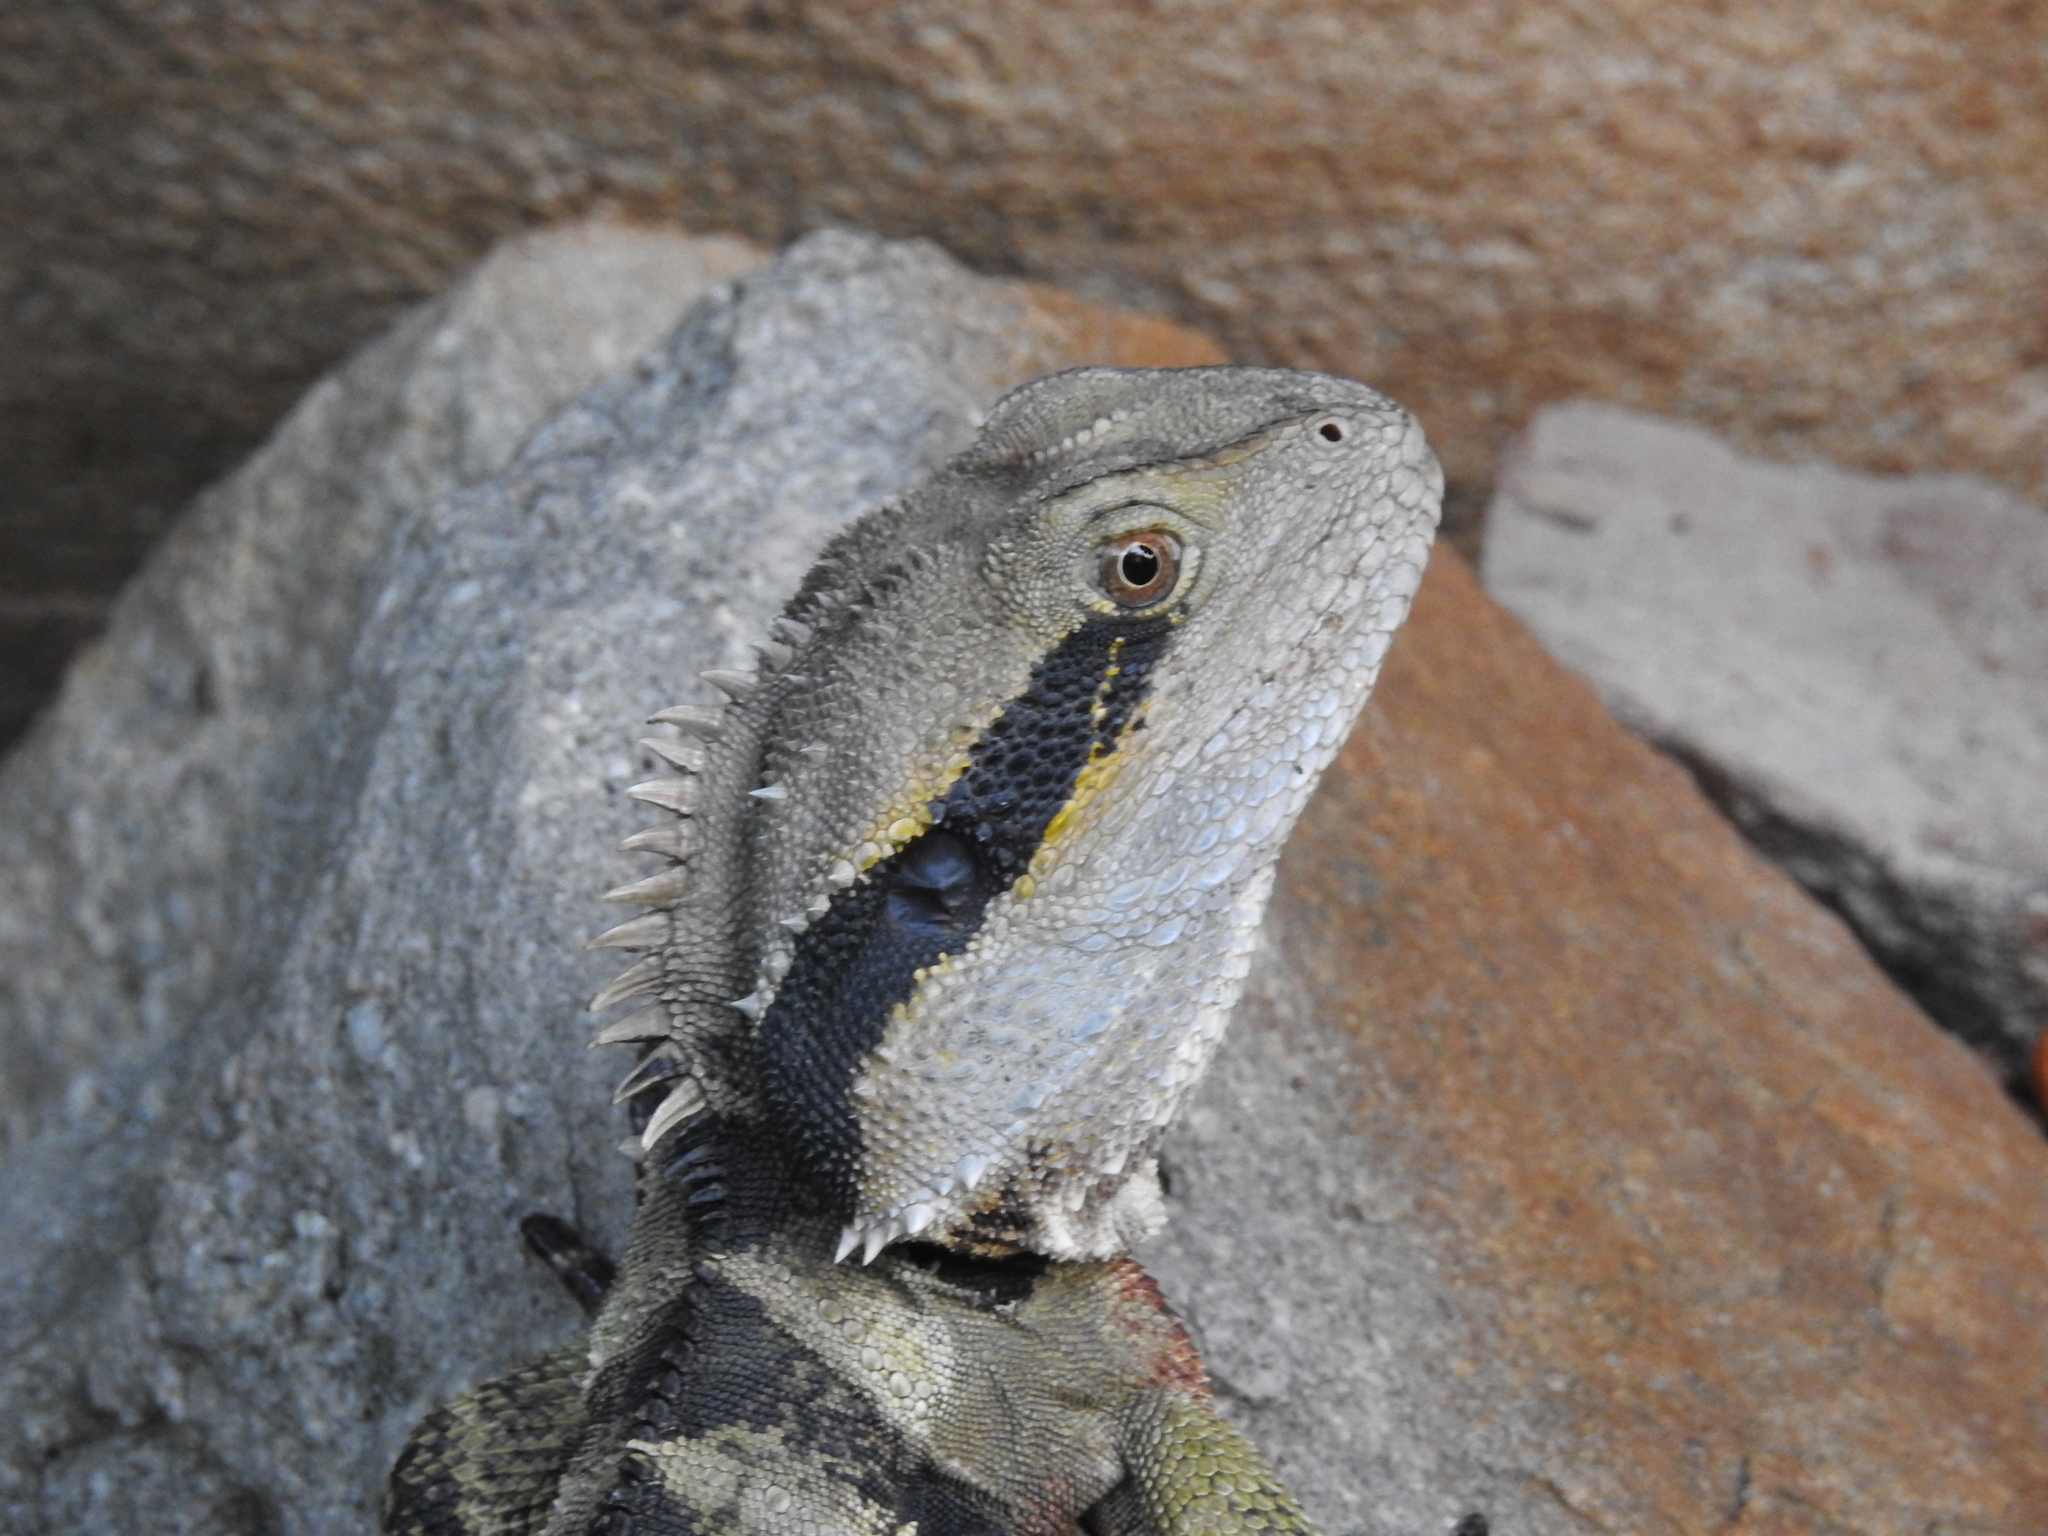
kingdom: Animalia
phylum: Chordata
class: Squamata
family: Agamidae
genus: Intellagama
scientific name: Intellagama lesueurii
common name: Eastern water dragon
